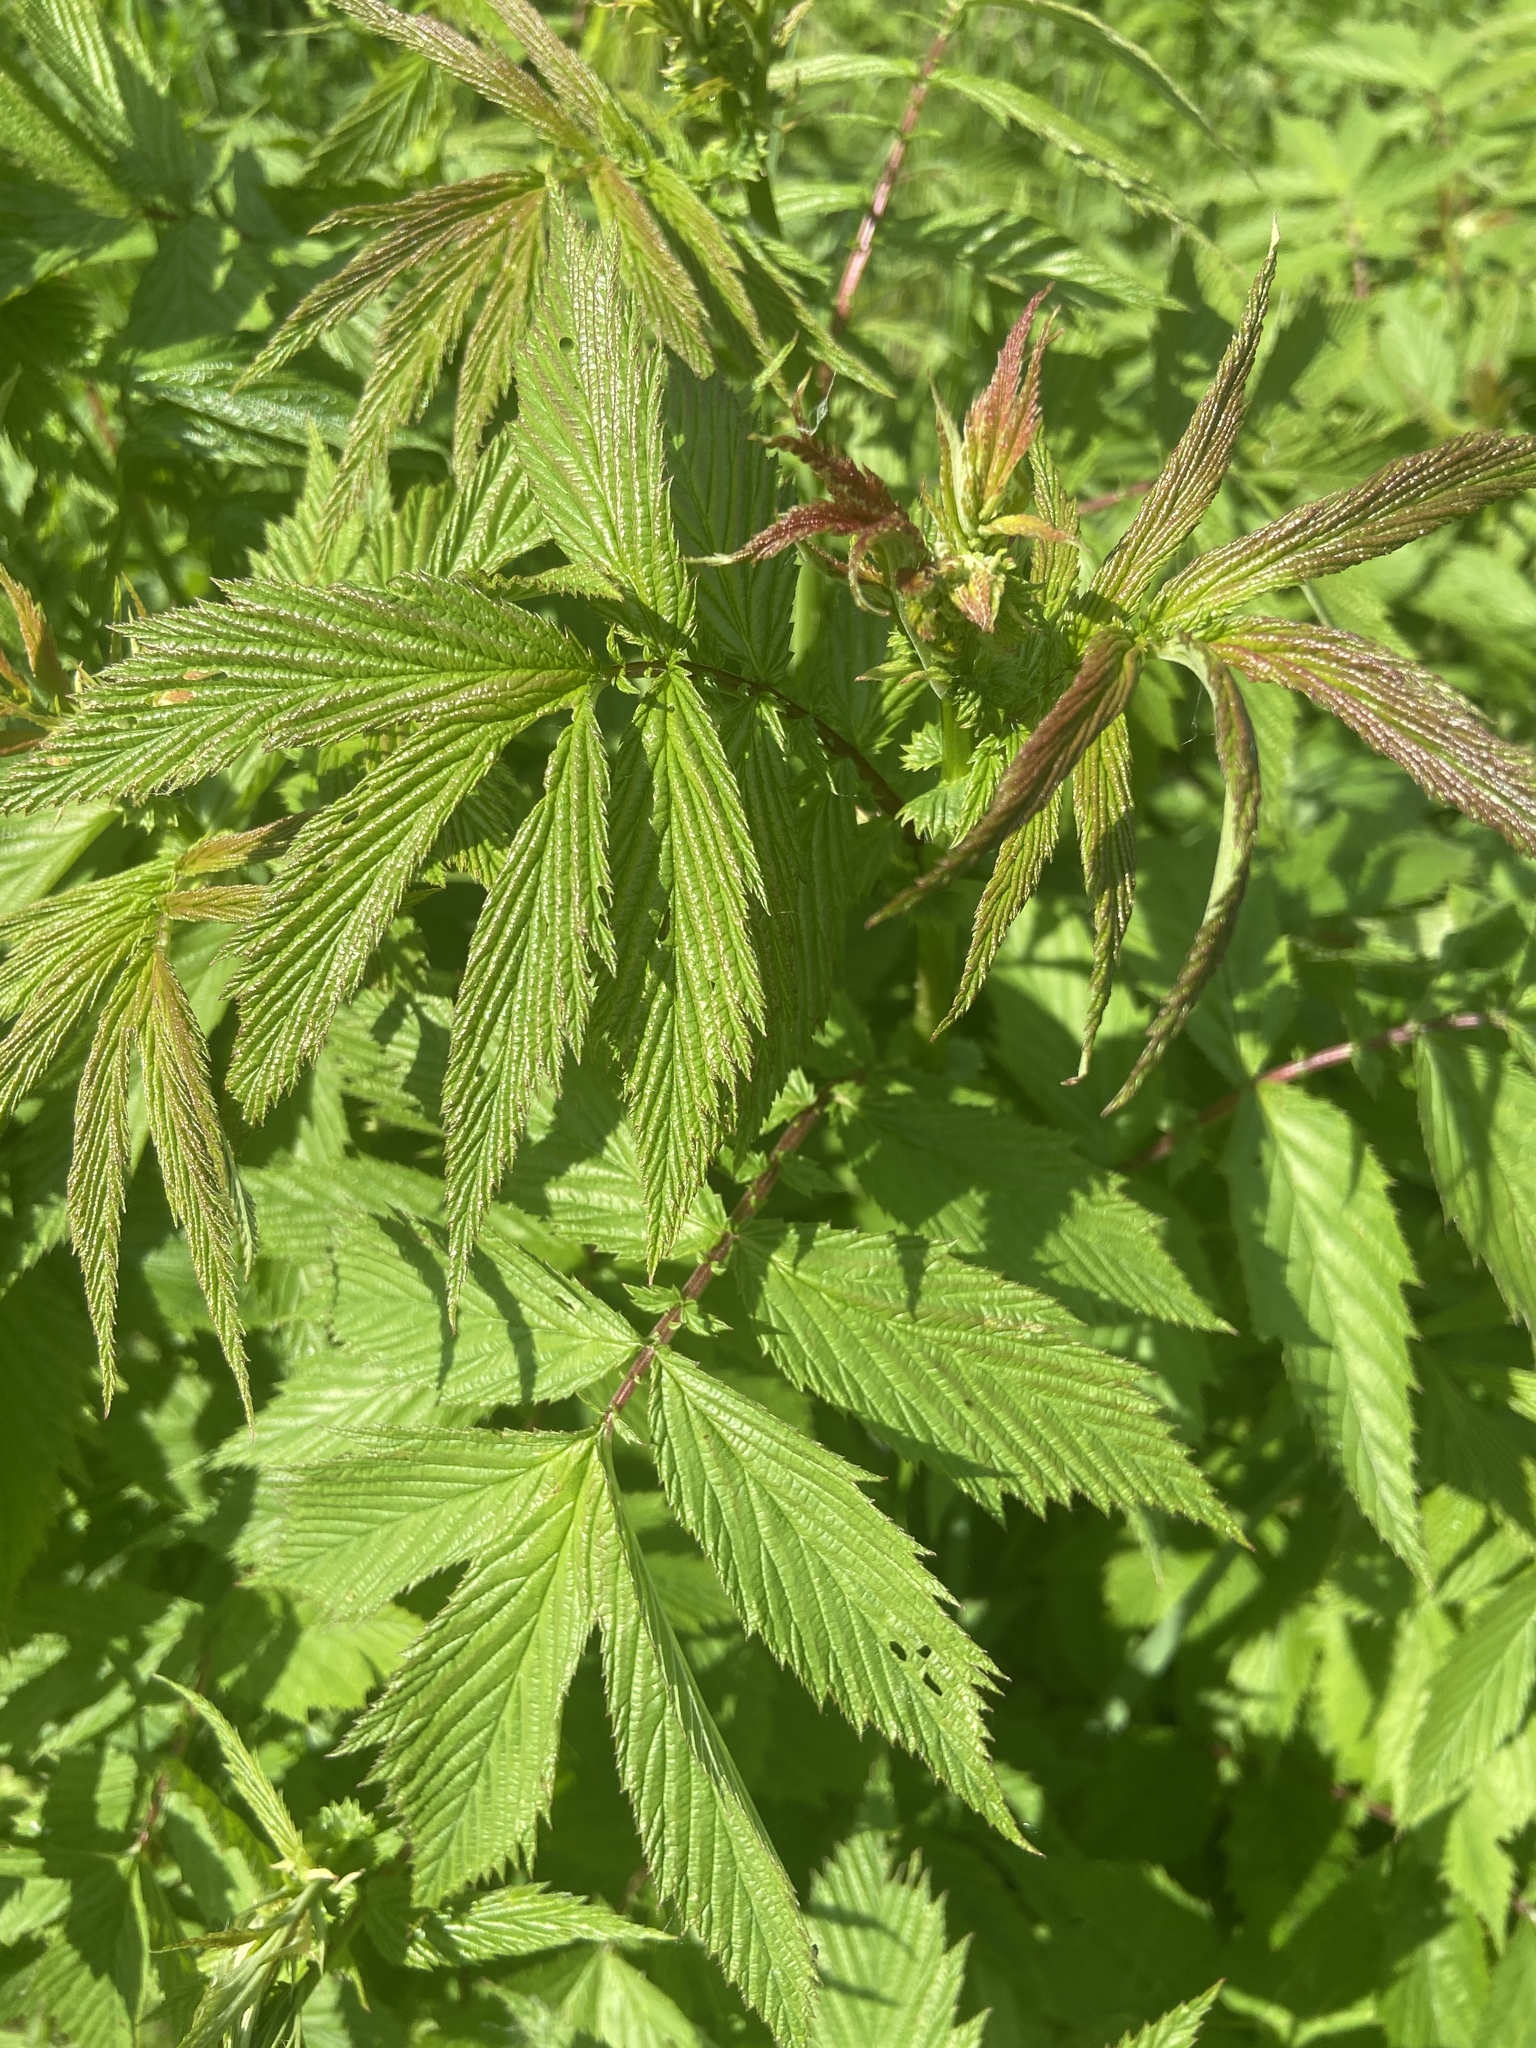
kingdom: Plantae
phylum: Tracheophyta
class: Magnoliopsida
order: Rosales
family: Rosaceae
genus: Filipendula
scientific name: Filipendula ulmaria
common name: Meadowsweet
